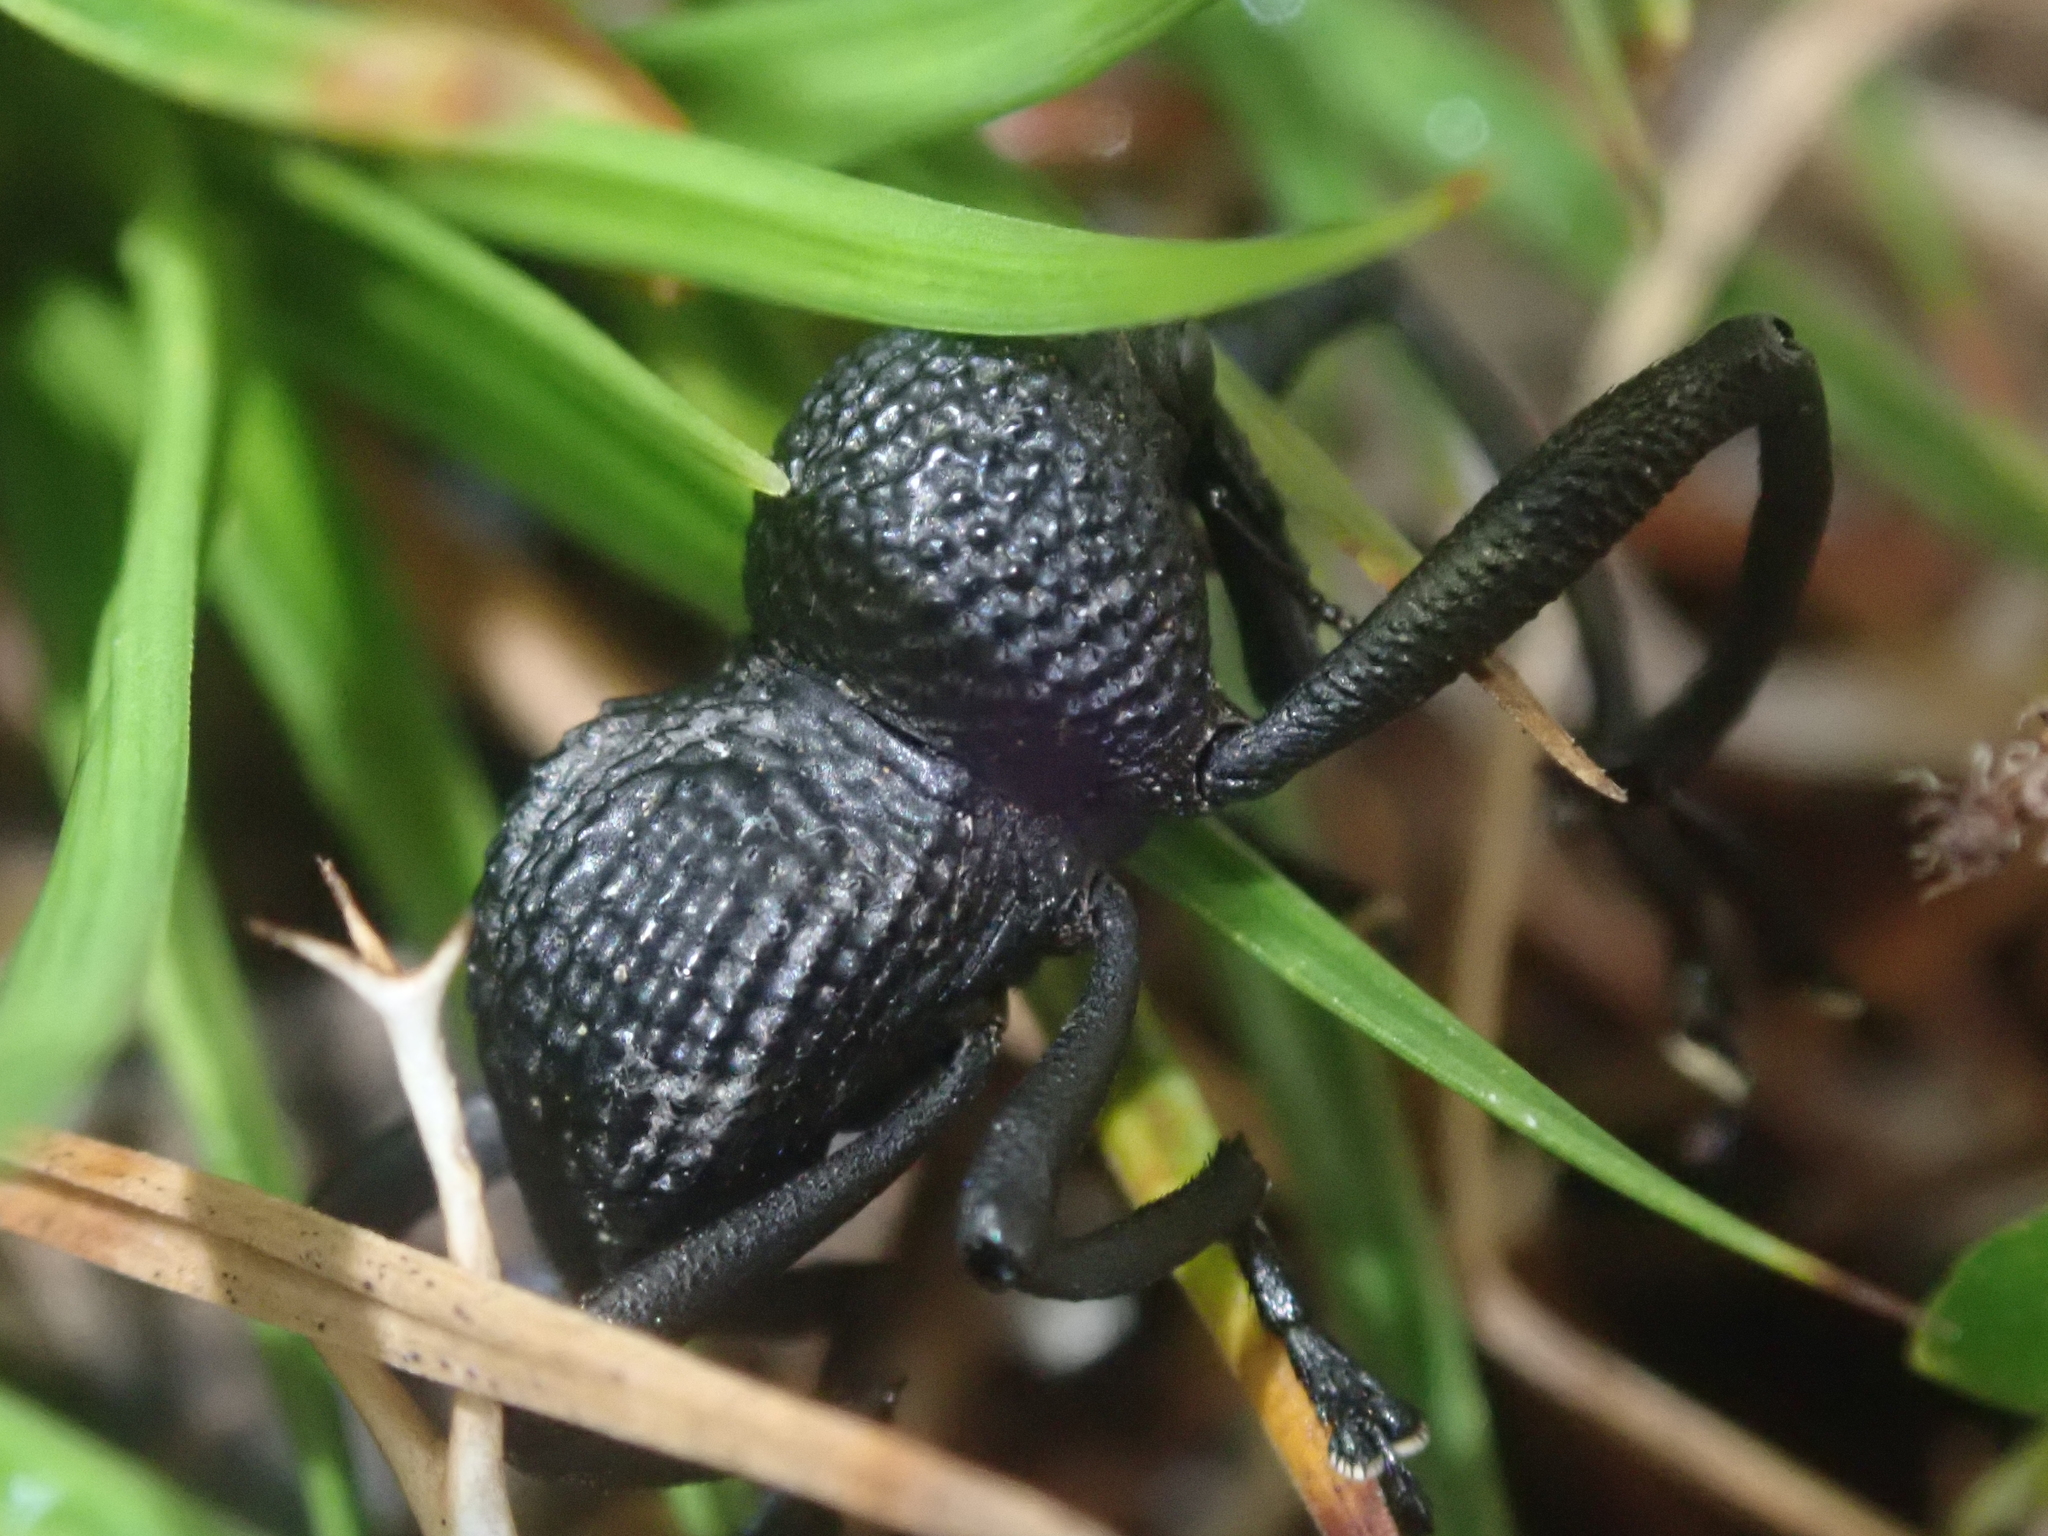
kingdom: Animalia
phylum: Arthropoda
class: Insecta
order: Coleoptera
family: Curculionidae
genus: Rhyephenes
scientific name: Rhyephenes maillei
